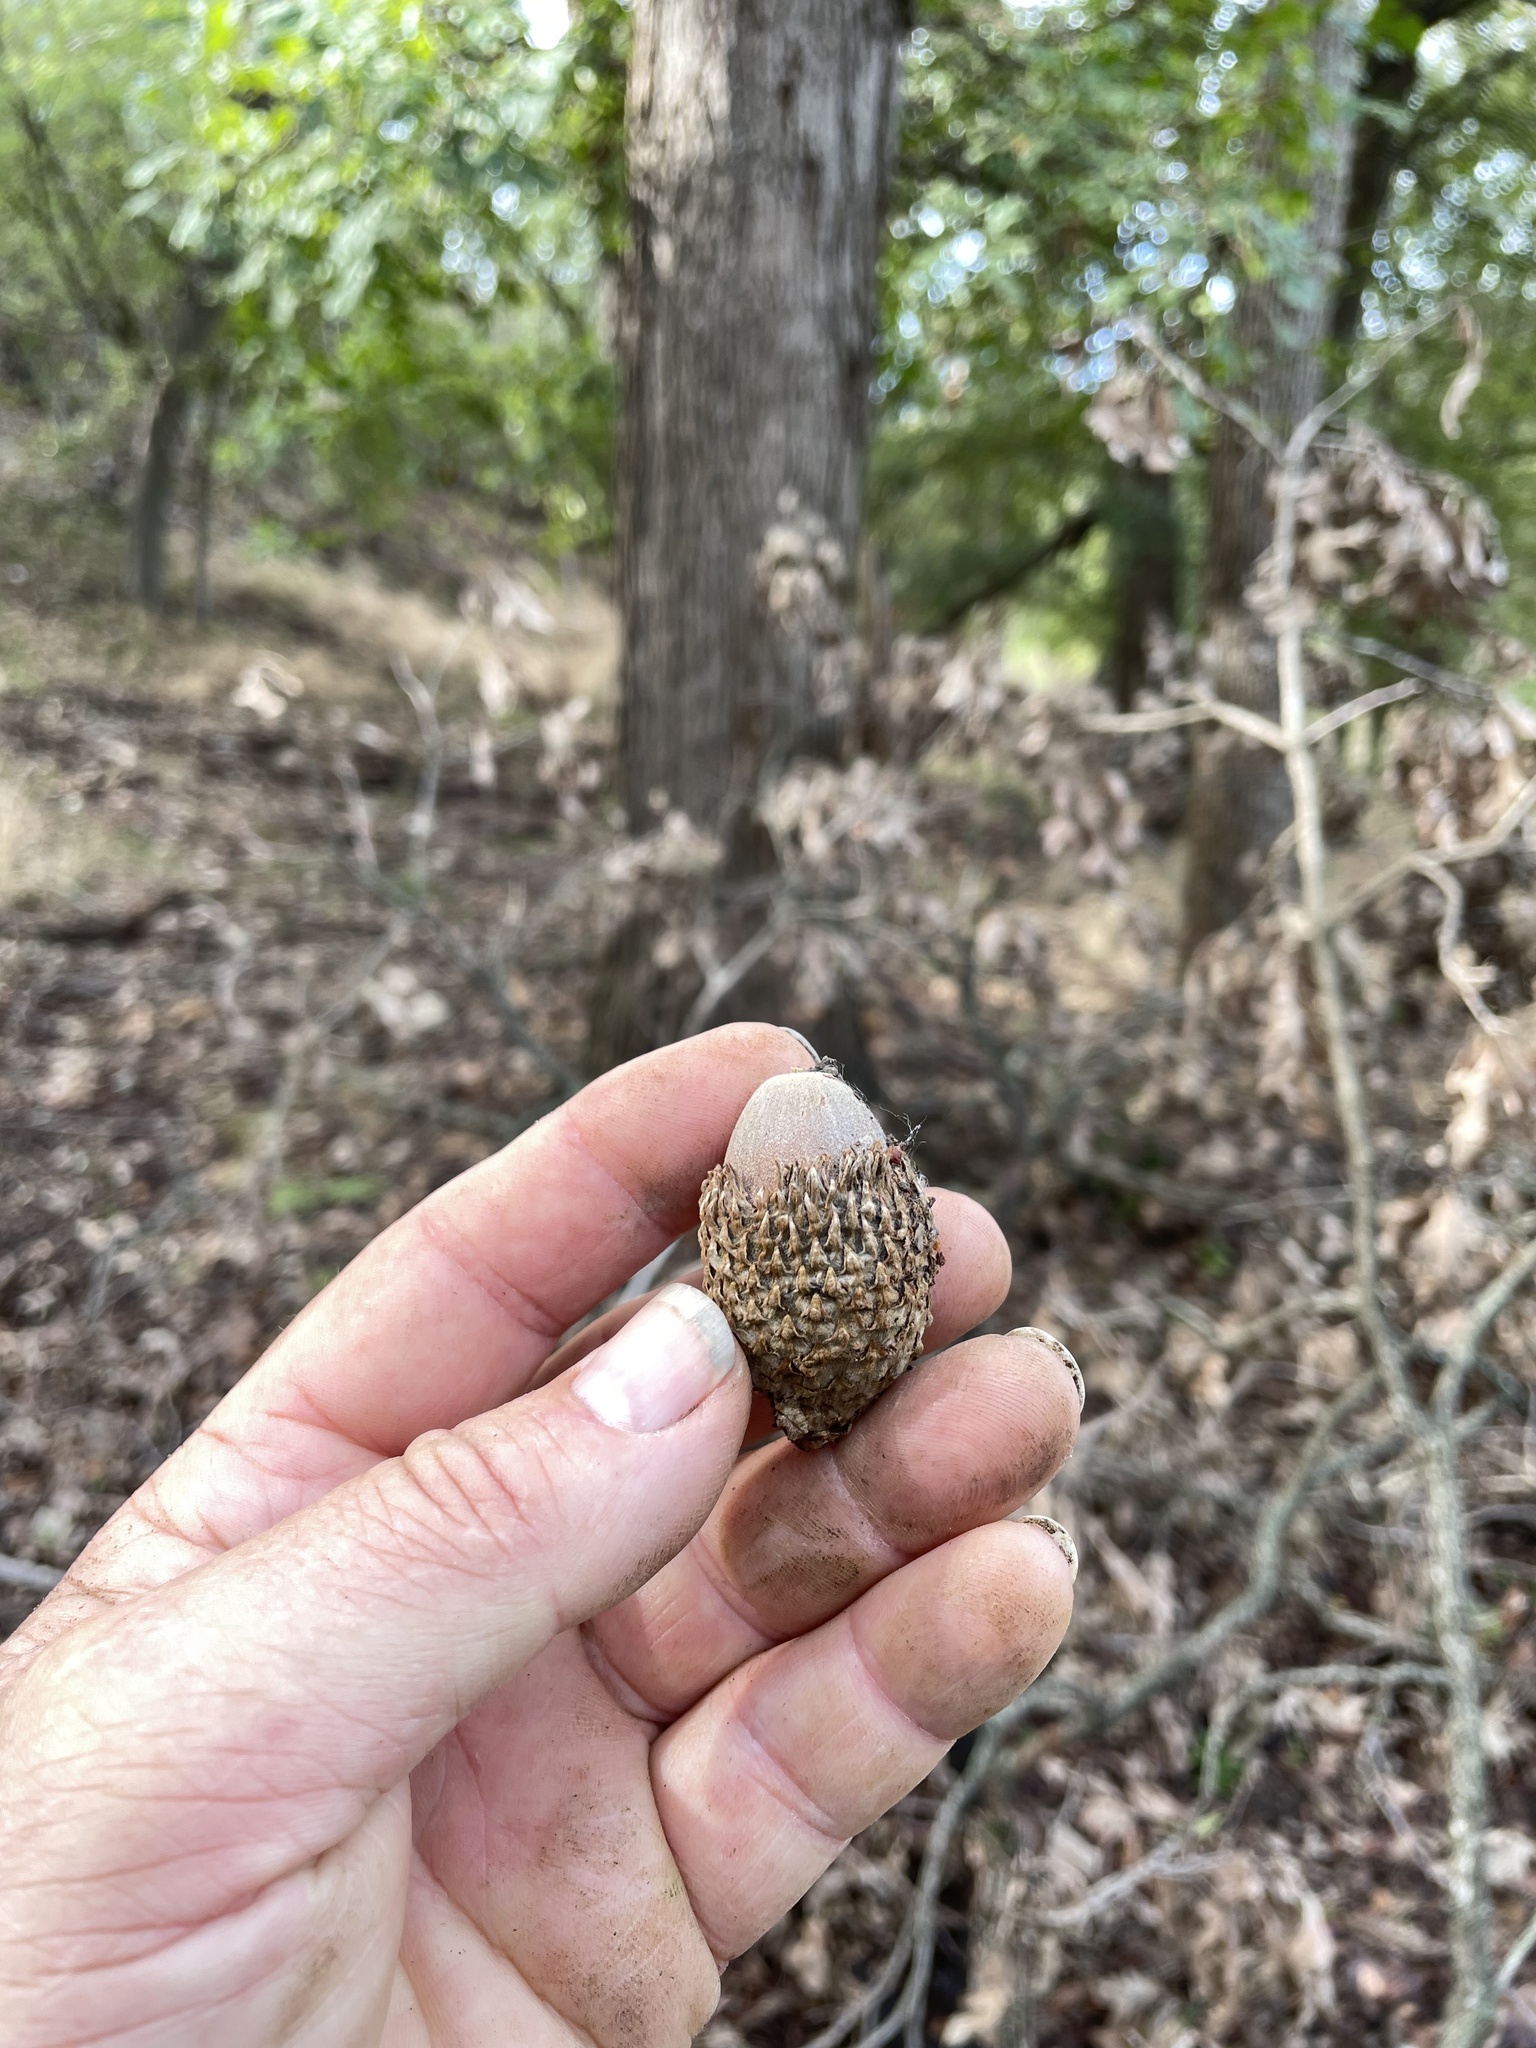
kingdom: Plantae
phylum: Tracheophyta
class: Magnoliopsida
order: Fagales
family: Fagaceae
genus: Quercus
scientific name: Quercus macrocarpa
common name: Bur oak
